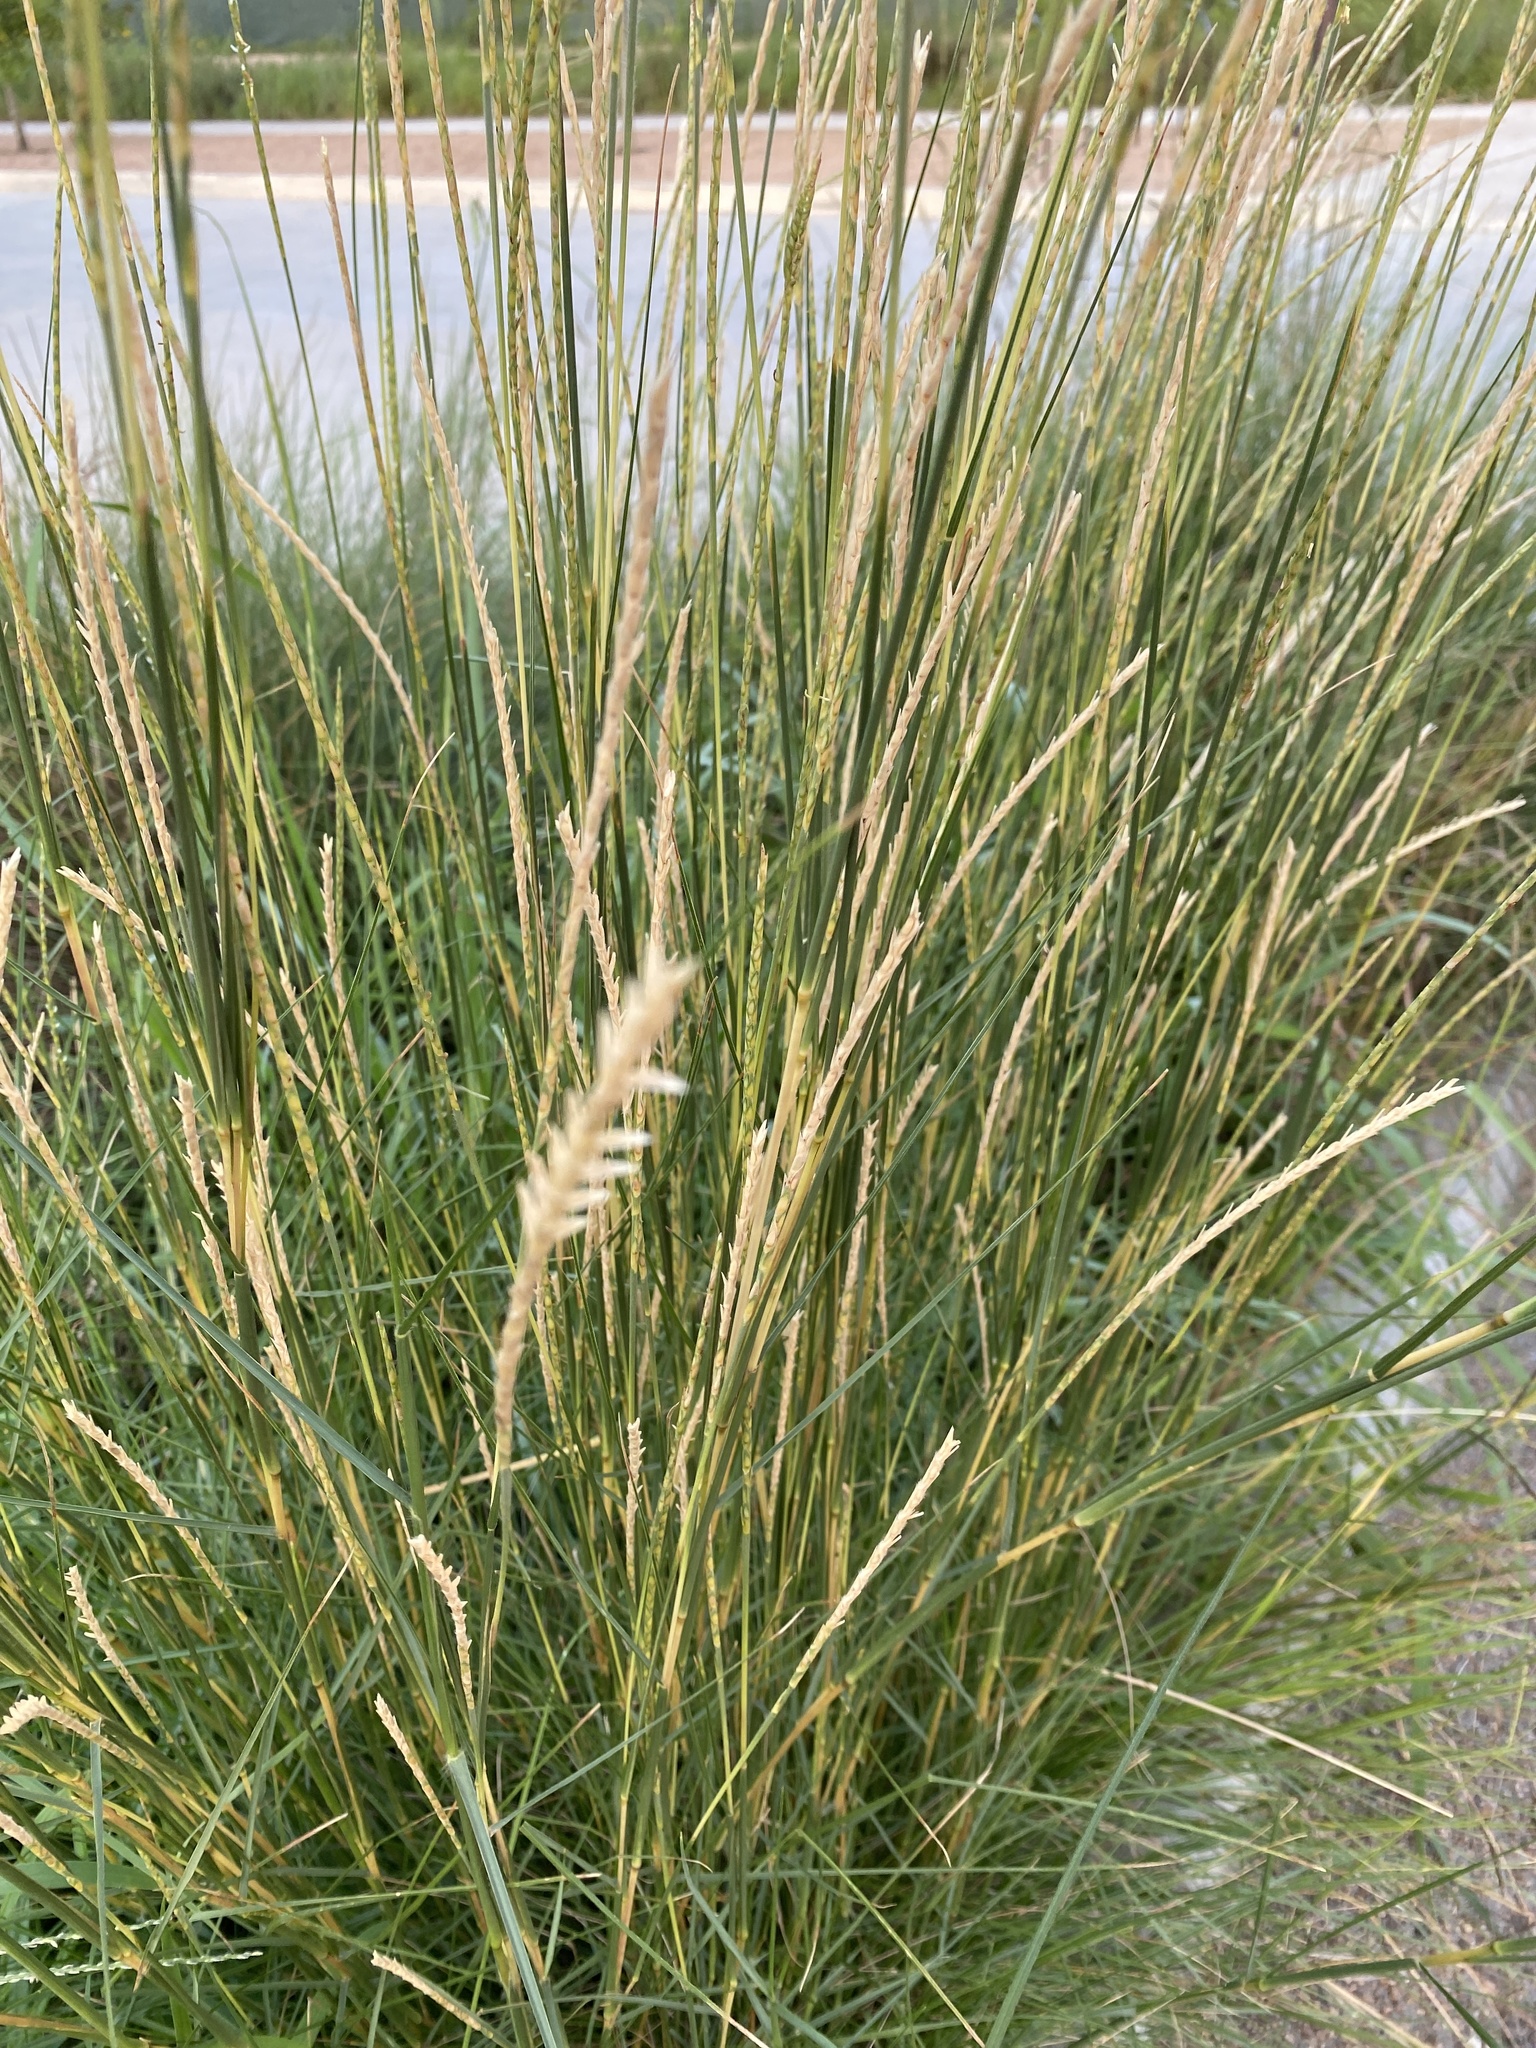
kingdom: Plantae
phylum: Tracheophyta
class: Liliopsida
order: Poales
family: Poaceae
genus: Elionurus
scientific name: Elionurus tripsacoides
